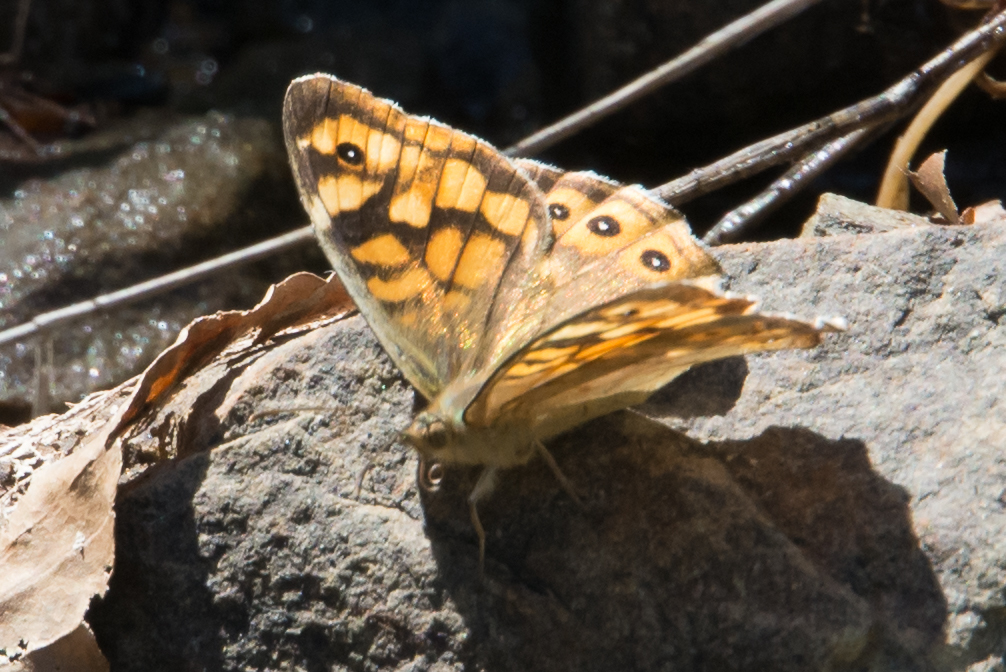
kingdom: Animalia
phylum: Arthropoda
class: Insecta
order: Lepidoptera
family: Nymphalidae
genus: Pararge
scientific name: Pararge aegeria
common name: Speckled wood
